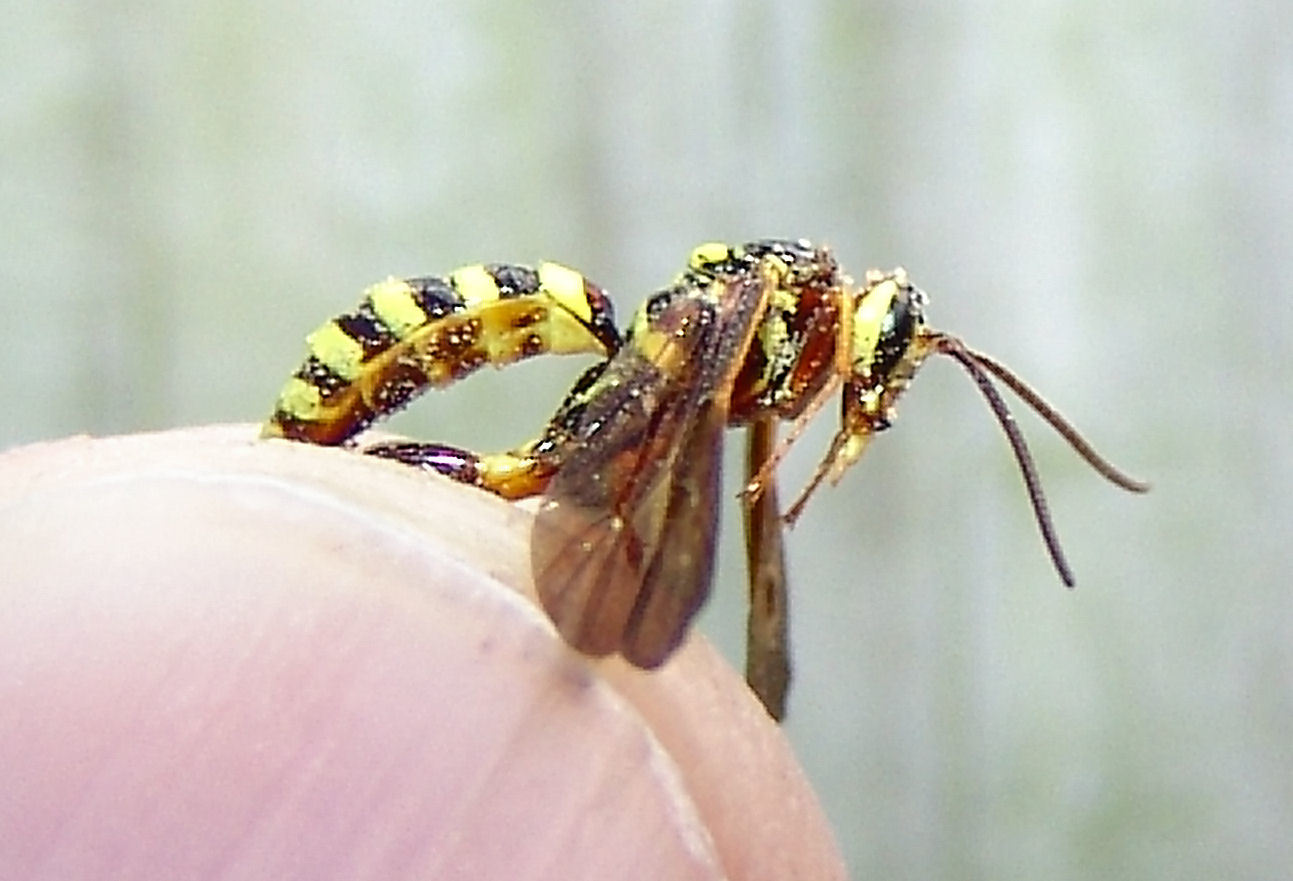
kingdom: Animalia
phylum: Arthropoda
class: Insecta
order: Hymenoptera
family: Ichneumonidae
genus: Ceratogastra
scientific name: Ceratogastra ornata
